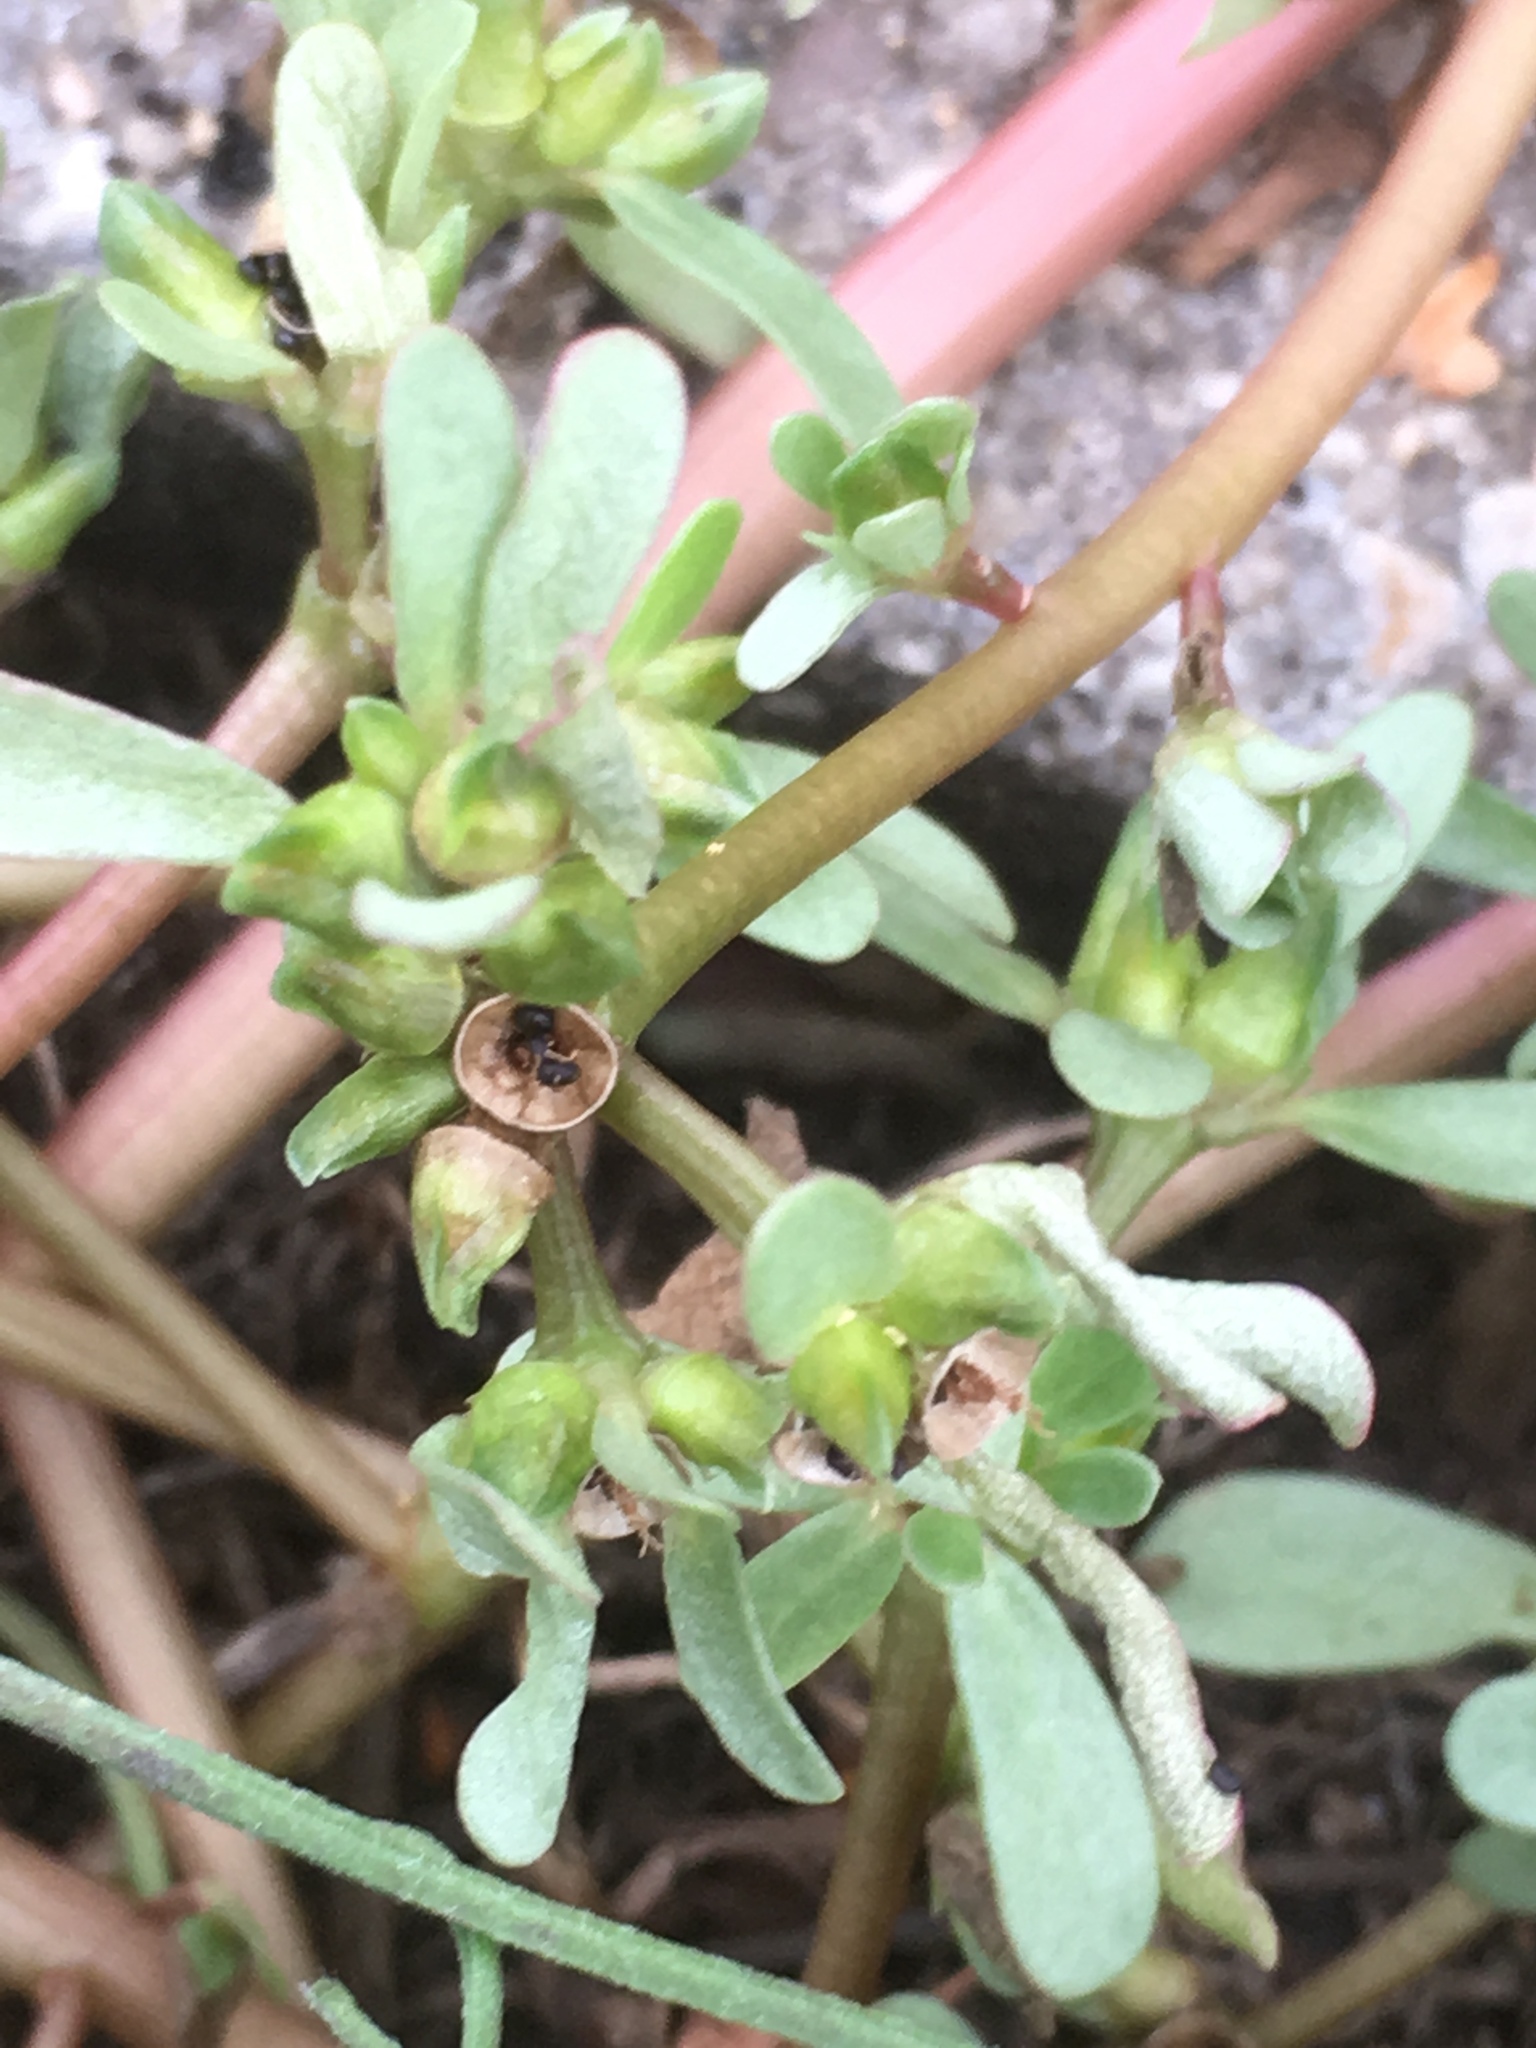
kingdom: Plantae
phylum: Tracheophyta
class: Magnoliopsida
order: Caryophyllales
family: Portulacaceae
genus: Portulaca
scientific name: Portulaca oleracea
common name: Common purslane
